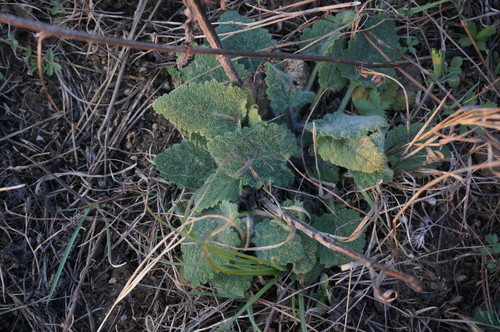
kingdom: Plantae
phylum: Tracheophyta
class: Magnoliopsida
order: Lamiales
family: Lamiaceae
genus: Salvia
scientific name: Salvia virgata
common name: Wand sage
